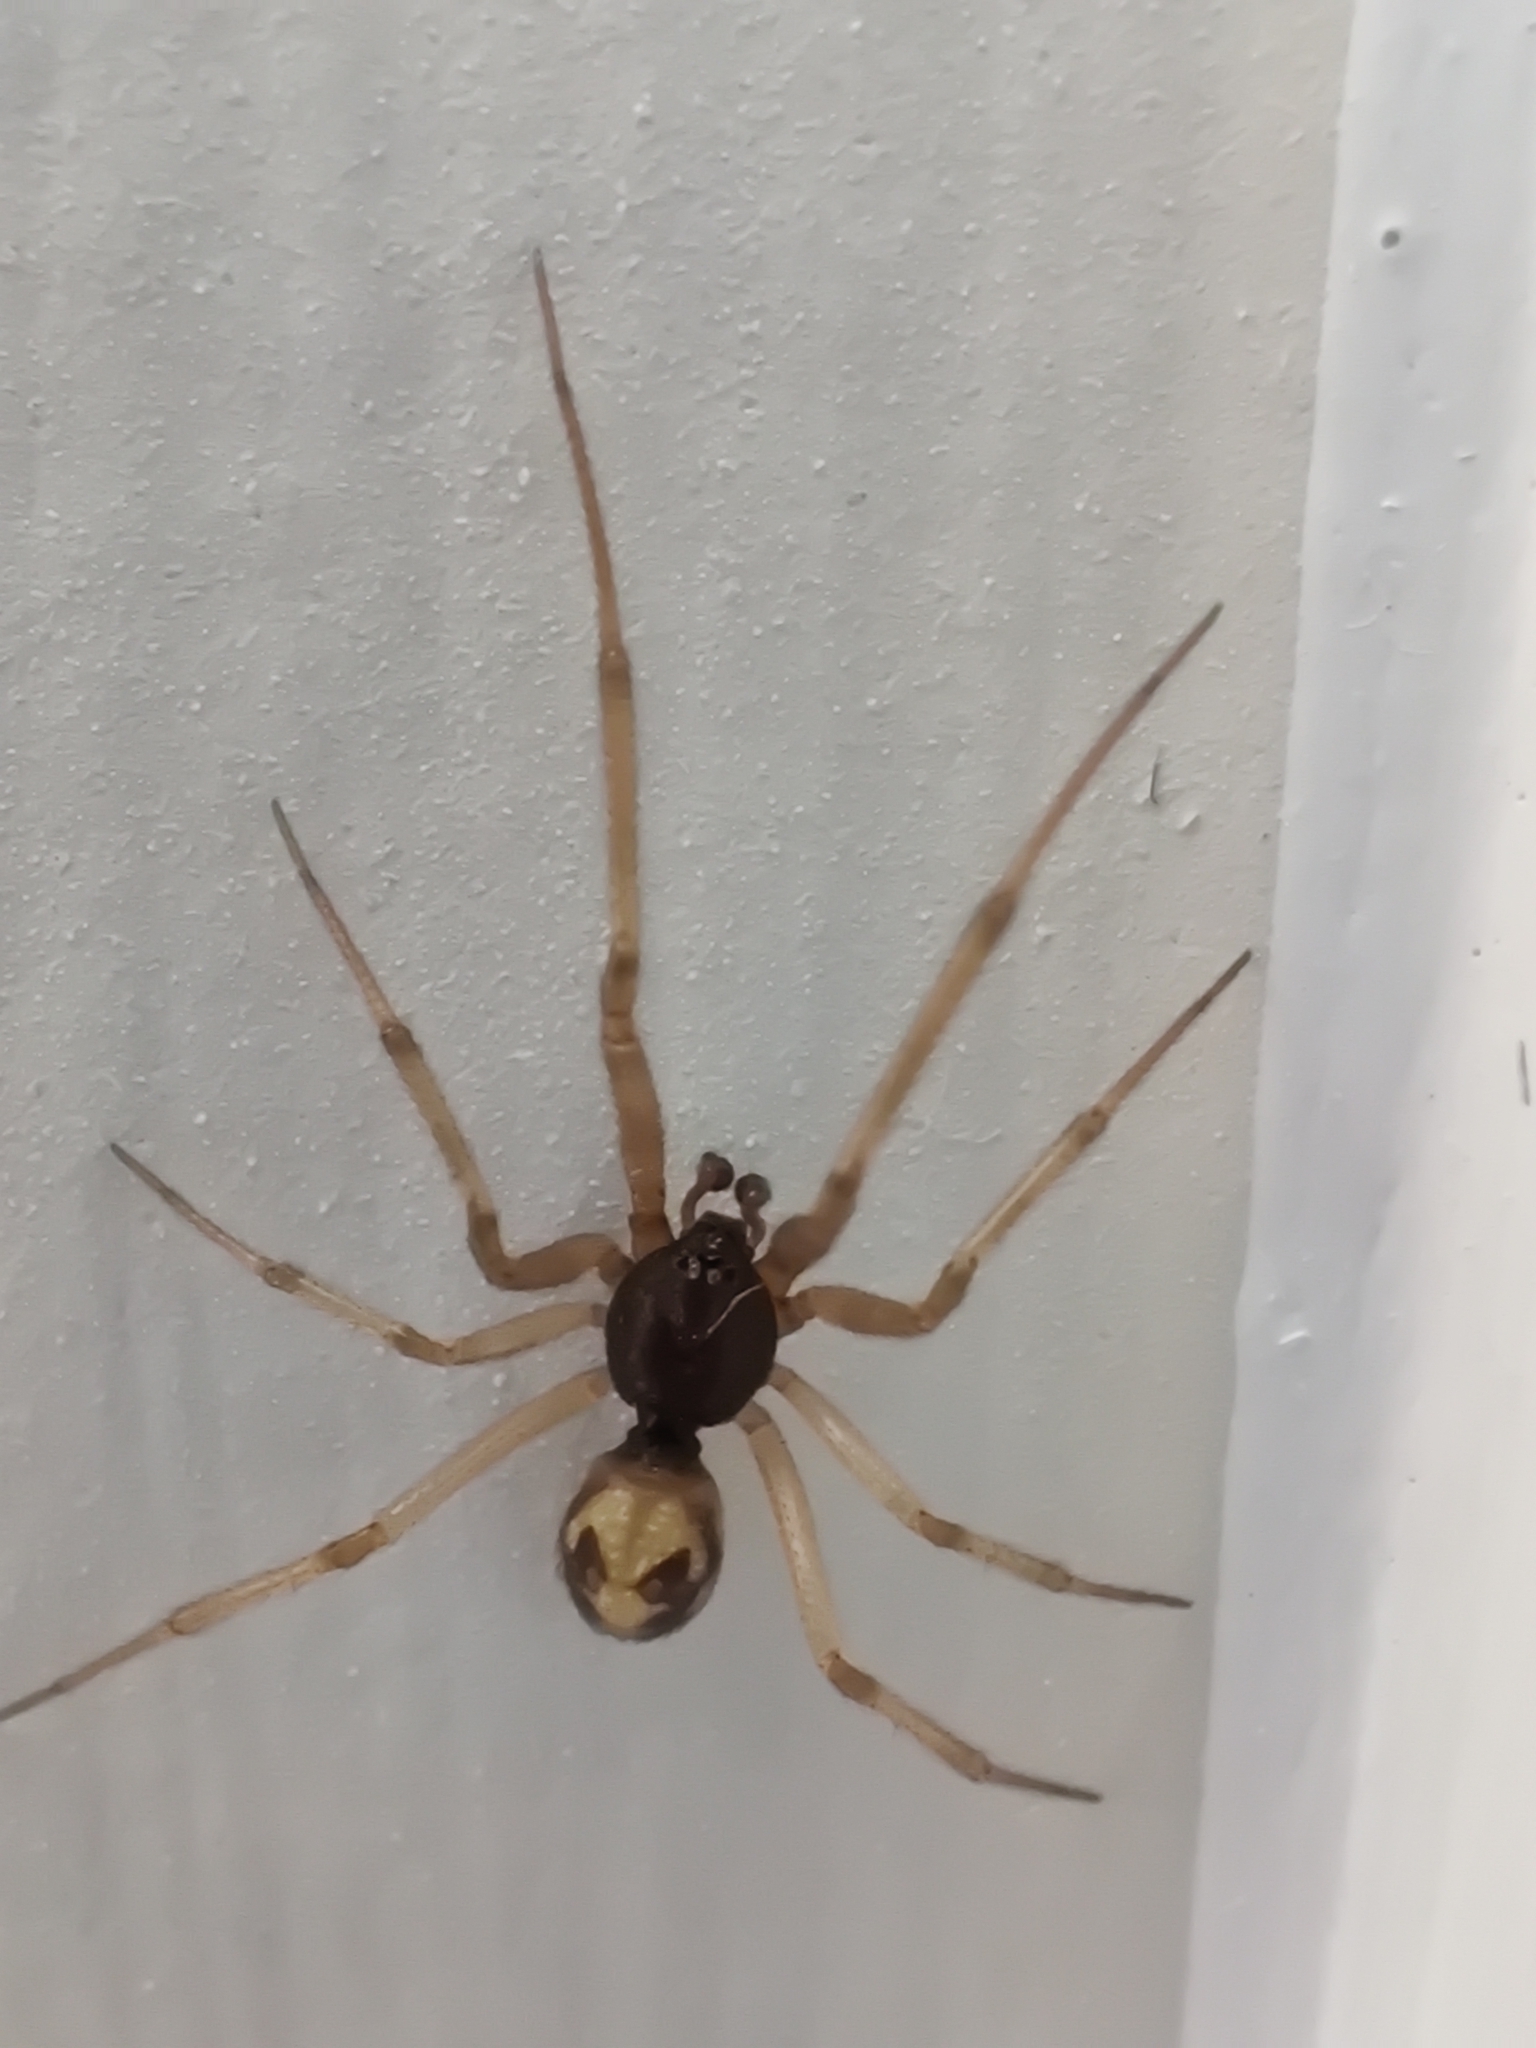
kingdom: Animalia
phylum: Arthropoda
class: Arachnida
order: Araneae
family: Theridiidae
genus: Steatoda
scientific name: Steatoda triangulosa
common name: Triangulate bud spider
